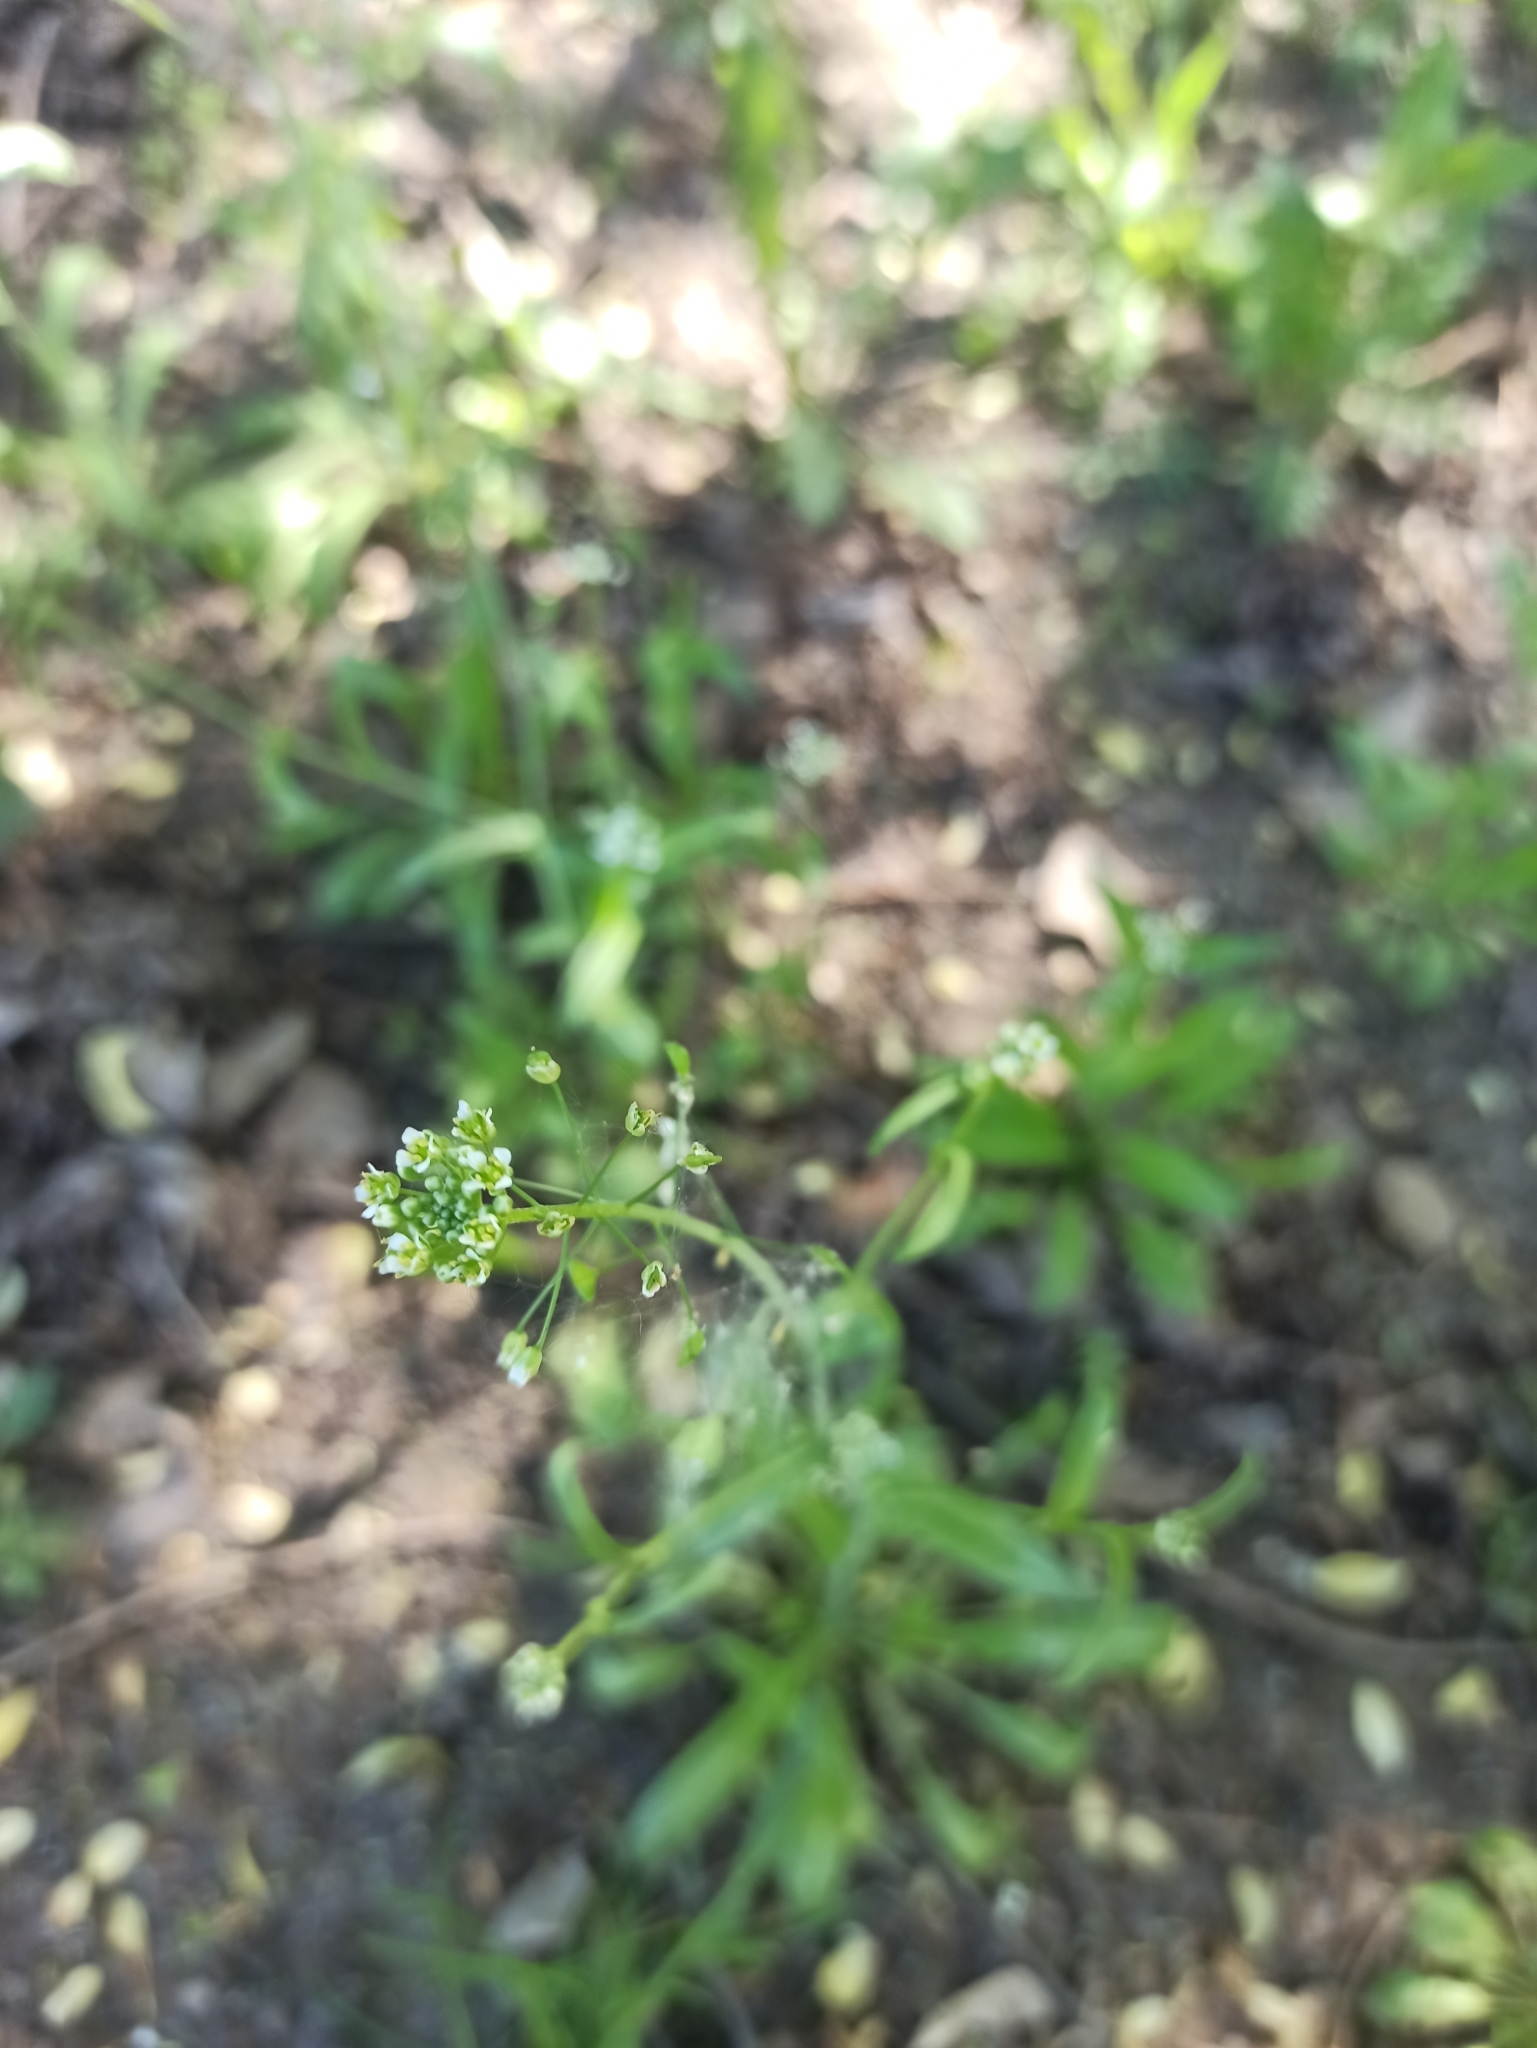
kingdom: Plantae
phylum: Tracheophyta
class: Magnoliopsida
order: Brassicales
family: Brassicaceae
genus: Capsella
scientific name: Capsella bursa-pastoris
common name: Shepherd's purse
